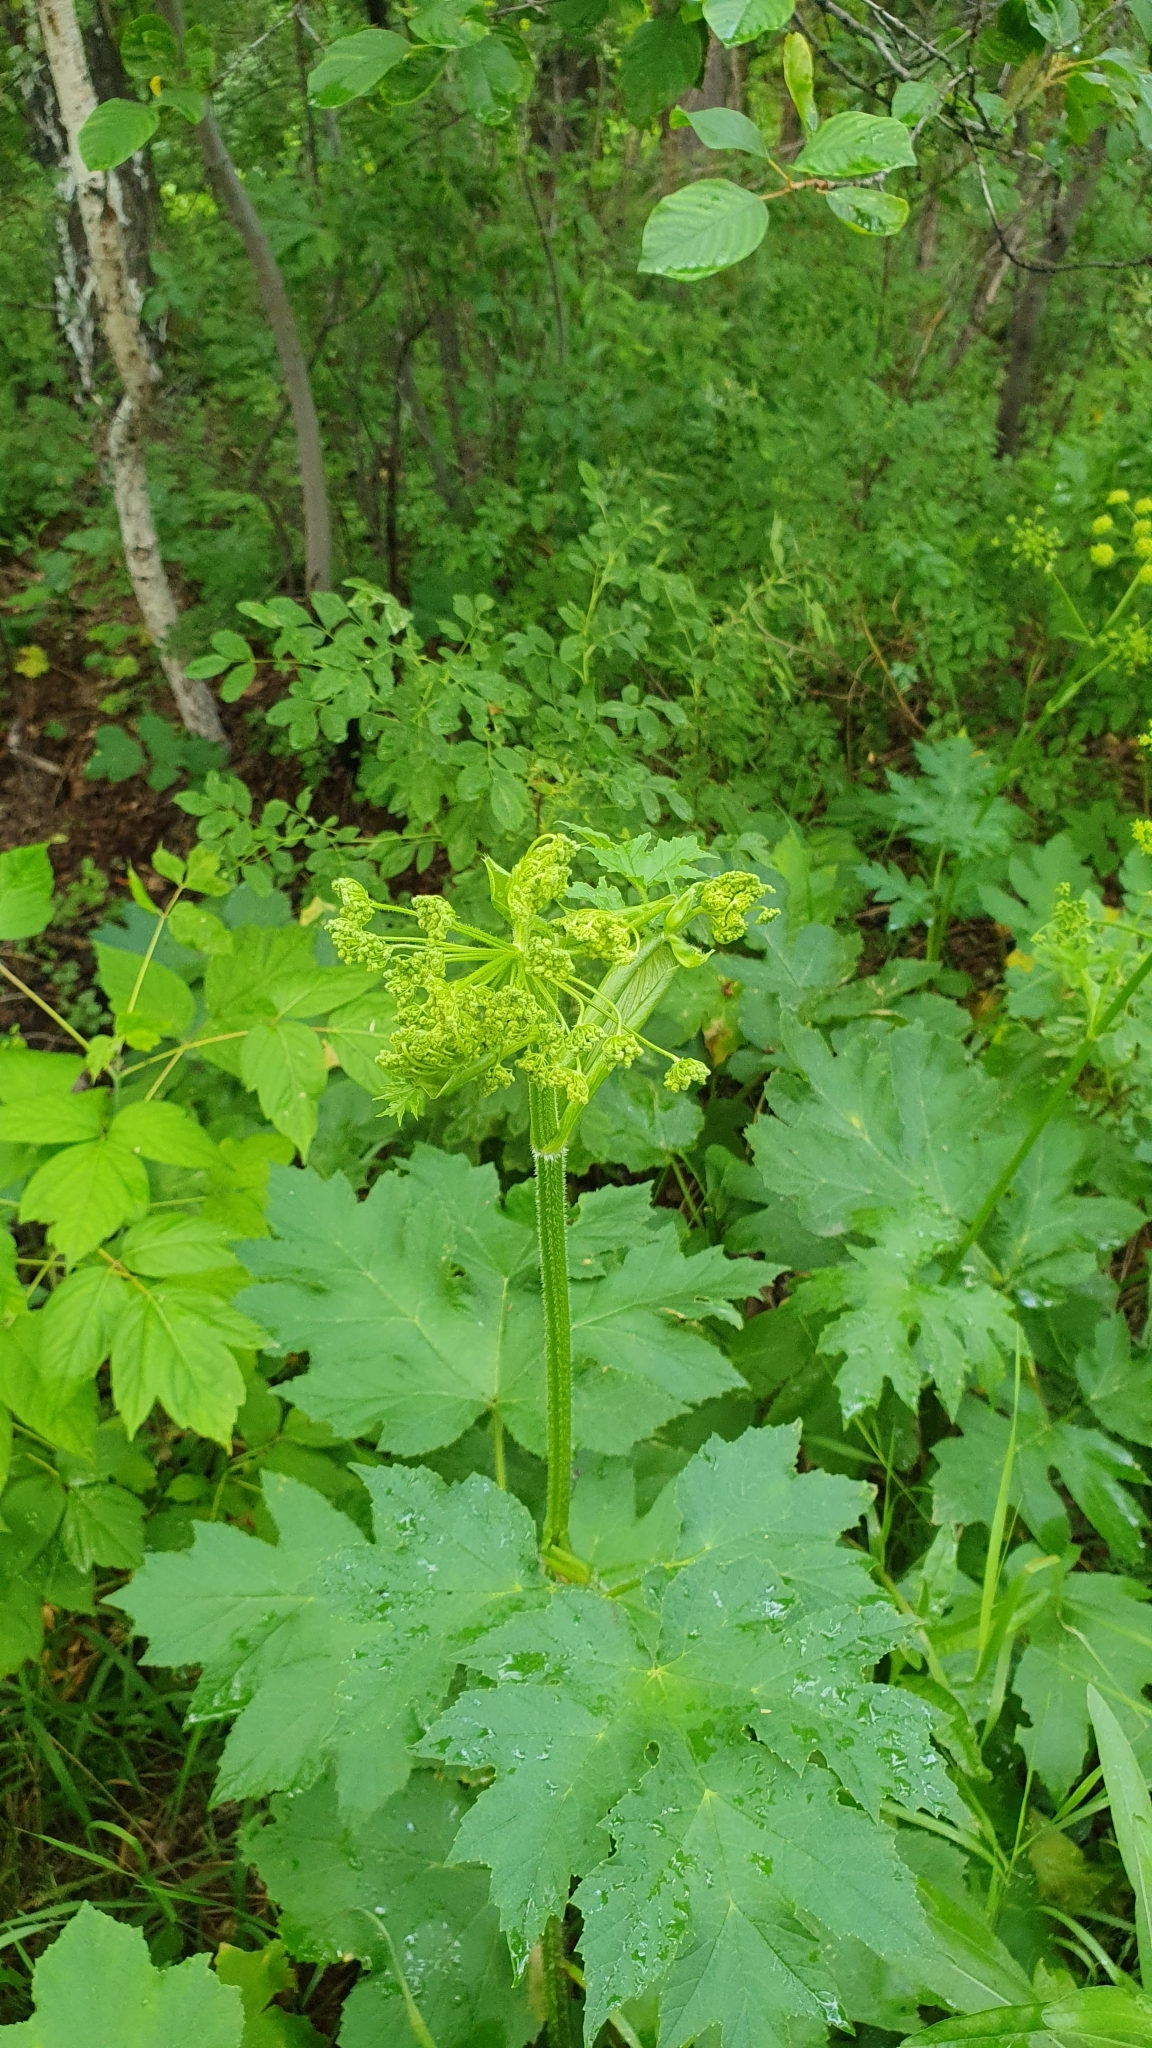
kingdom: Plantae
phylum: Tracheophyta
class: Magnoliopsida
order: Apiales
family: Apiaceae
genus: Heracleum
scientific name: Heracleum sphondylium
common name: Hogweed
